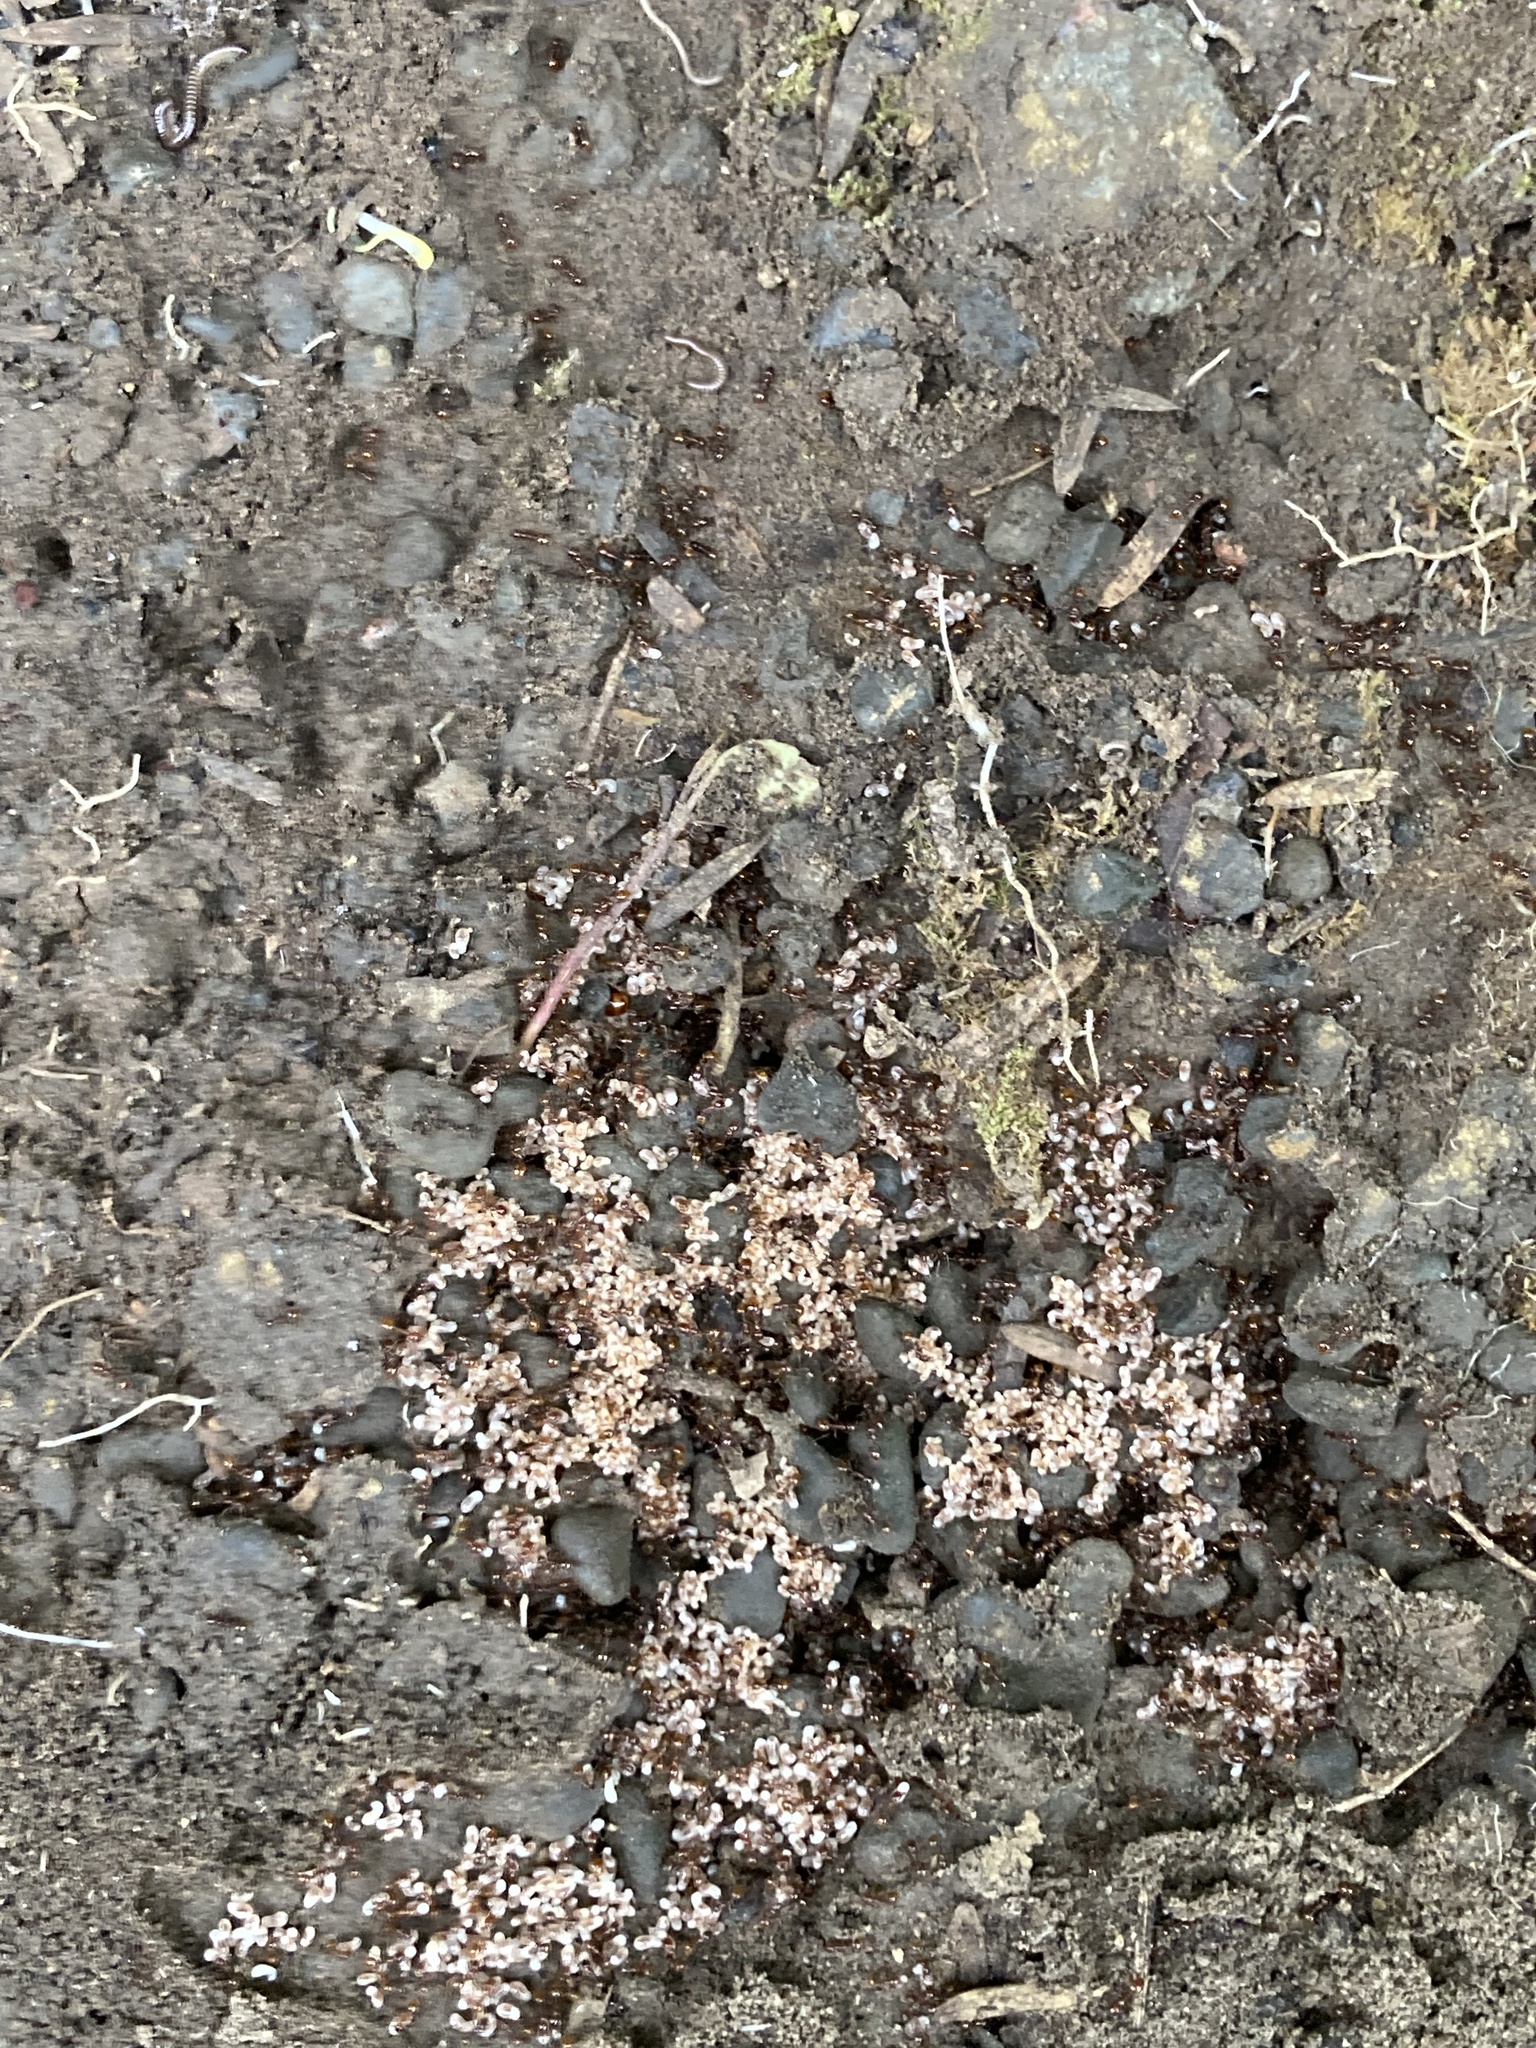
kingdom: Animalia
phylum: Arthropoda
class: Insecta
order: Hymenoptera
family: Formicidae
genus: Monomorium
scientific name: Monomorium antarcticum
